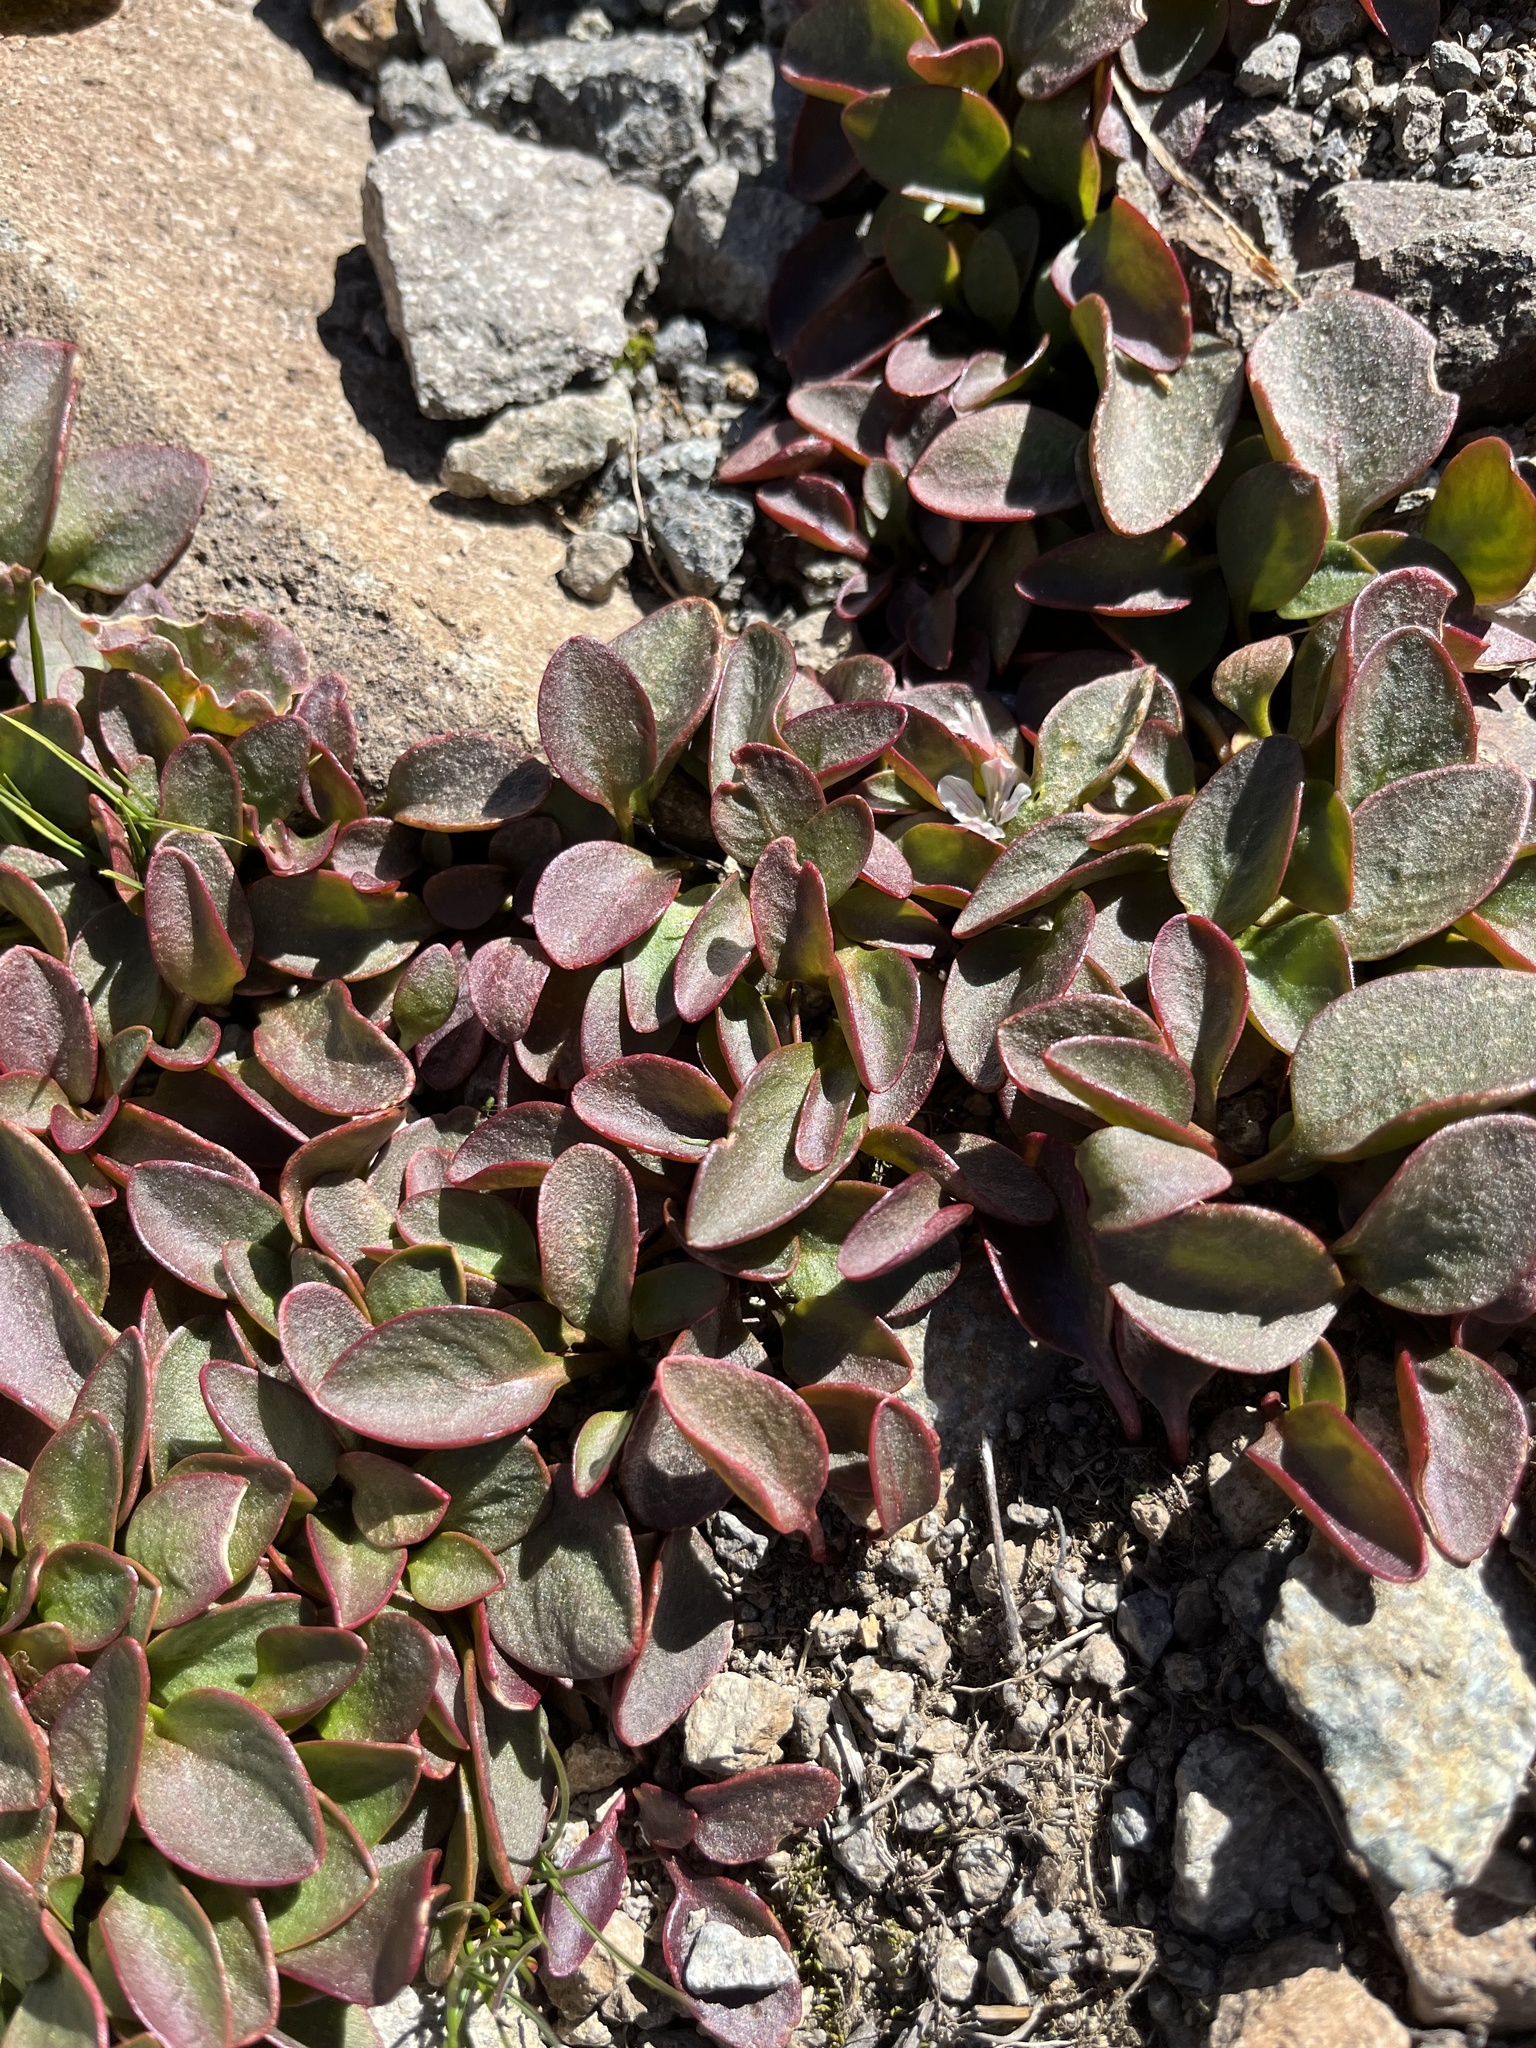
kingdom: Plantae
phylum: Tracheophyta
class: Magnoliopsida
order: Caryophyllales
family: Montiaceae
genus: Claytonia
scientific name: Claytonia nevadensis
